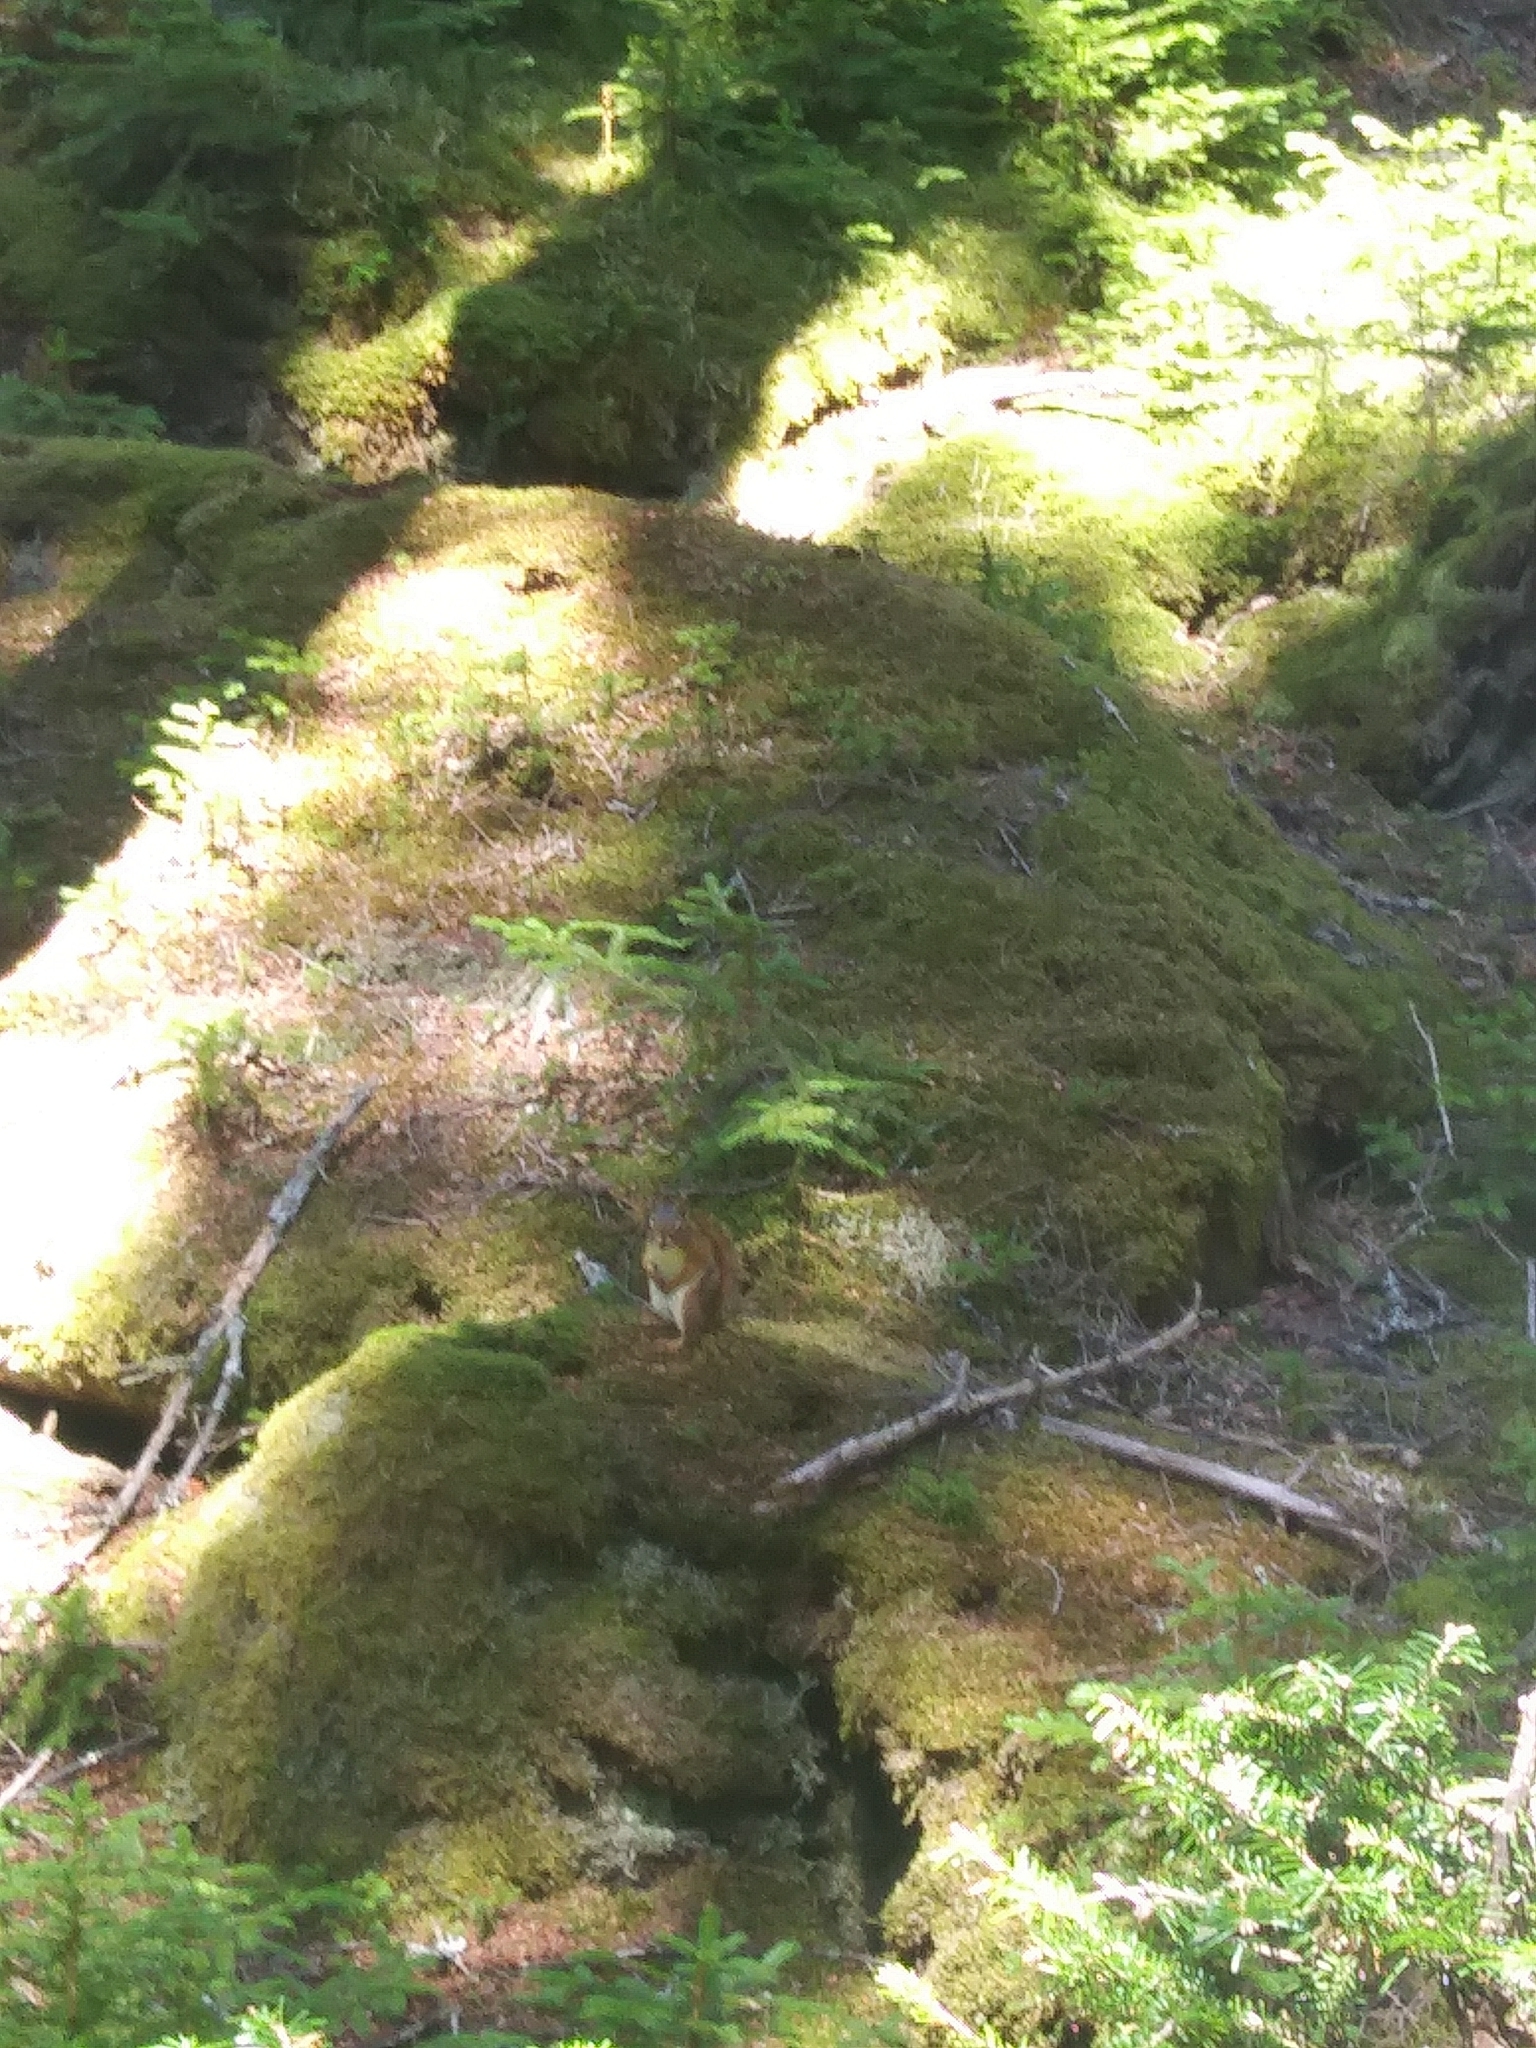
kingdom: Animalia
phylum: Chordata
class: Mammalia
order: Rodentia
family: Sciuridae
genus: Tamiasciurus
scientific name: Tamiasciurus hudsonicus
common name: Red squirrel
